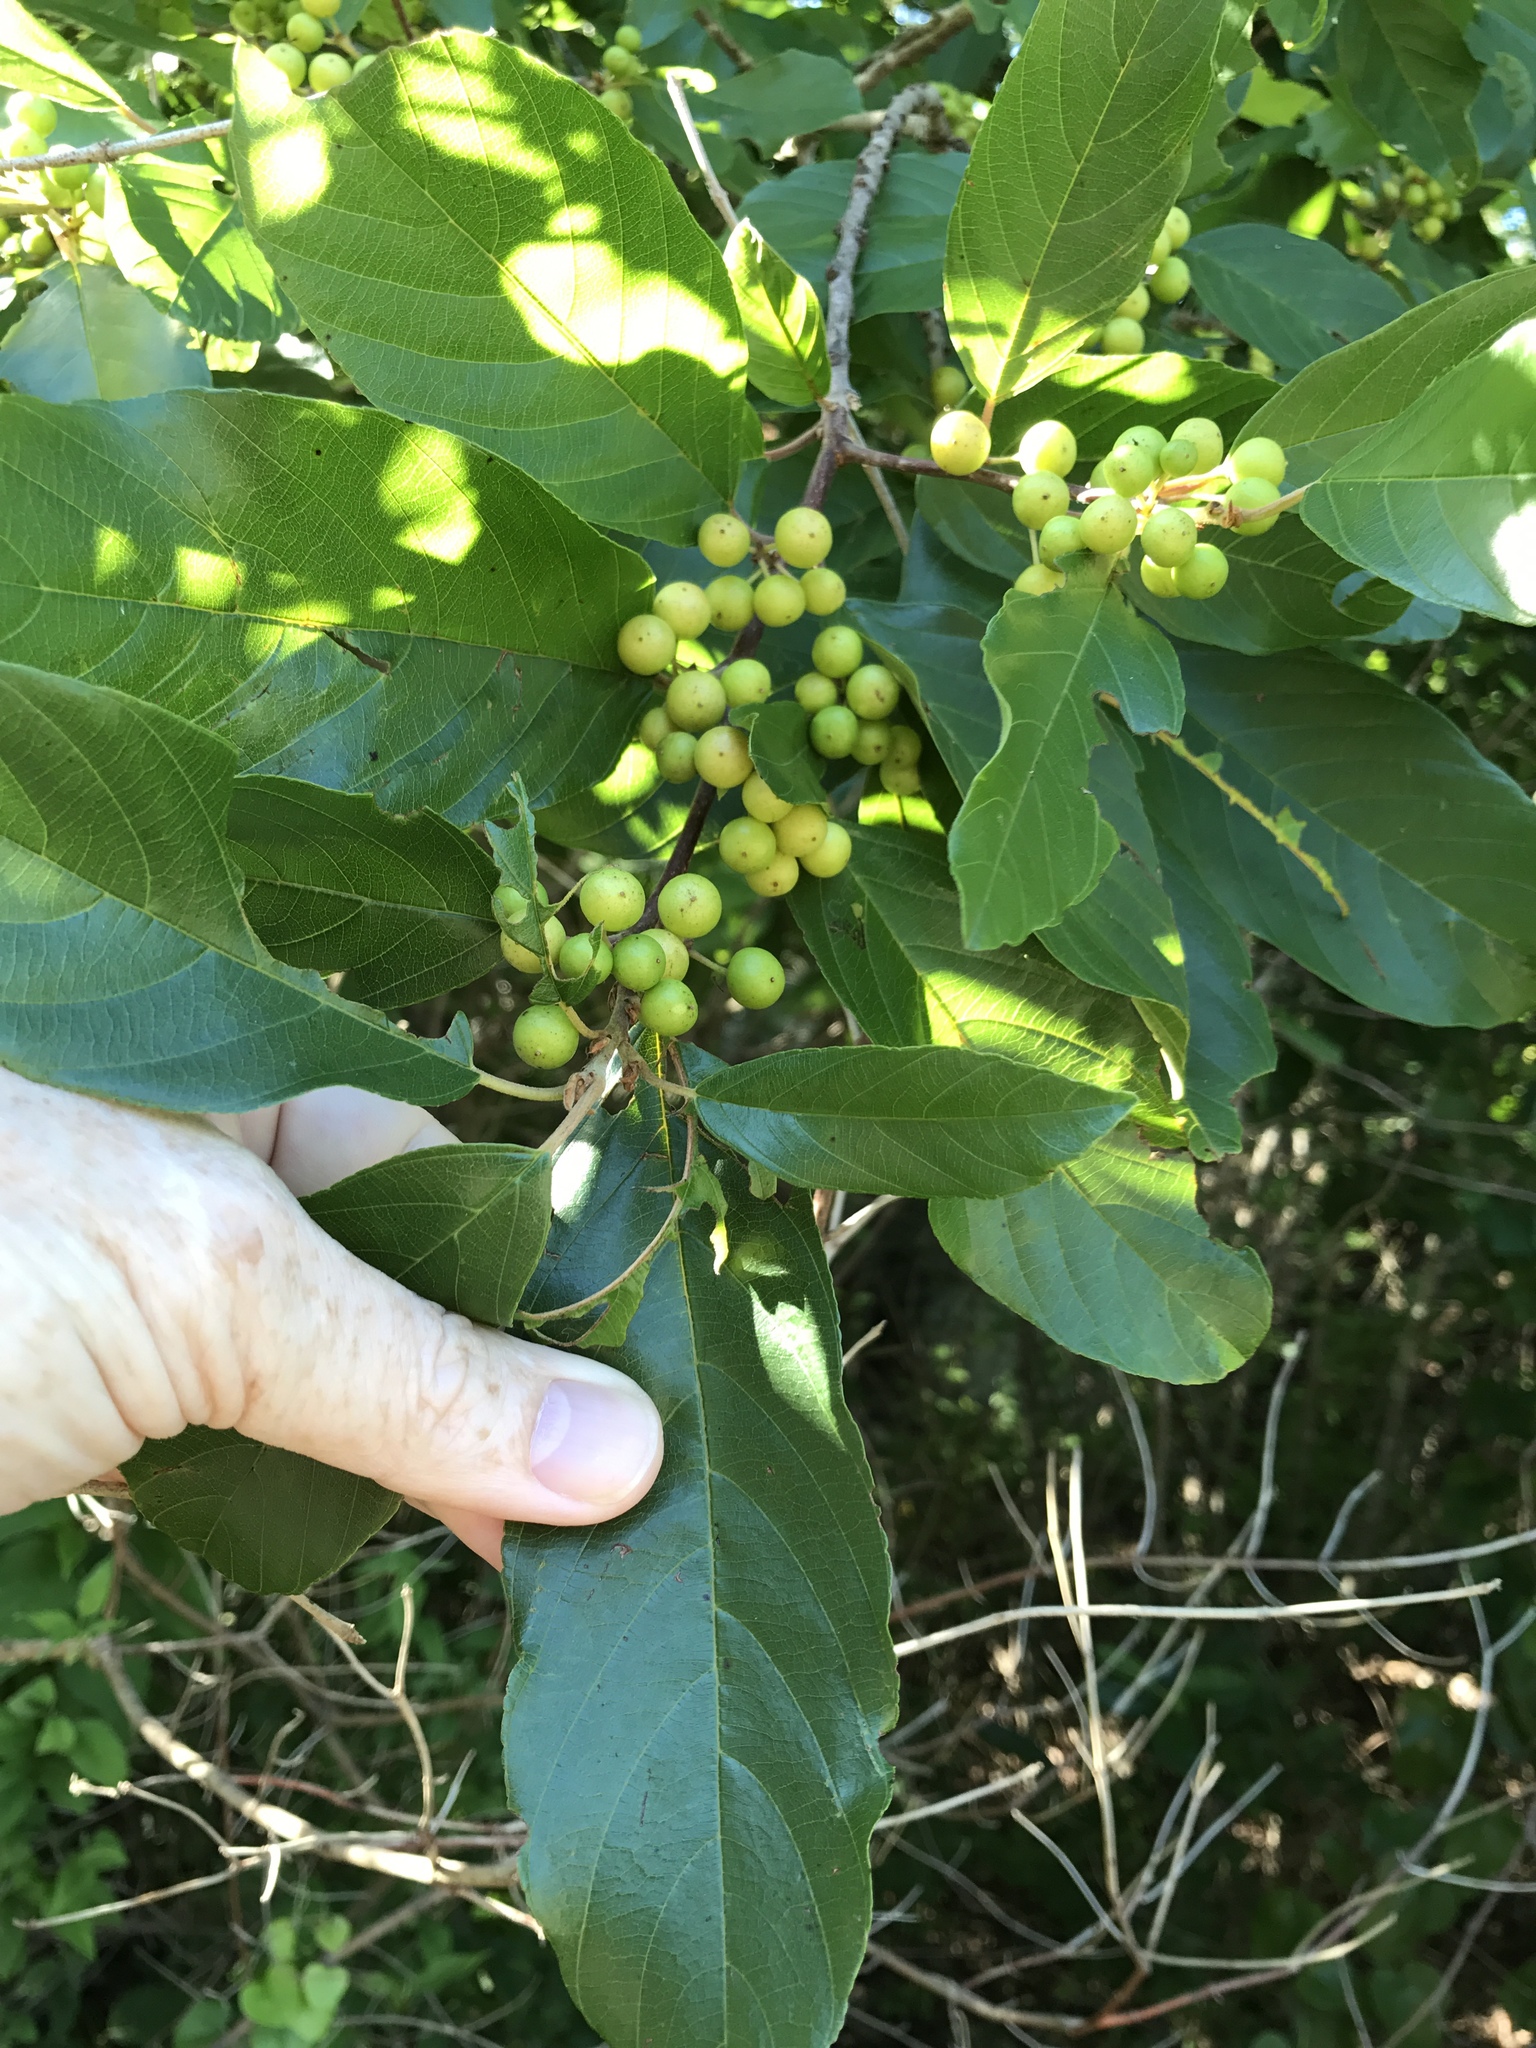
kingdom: Plantae
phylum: Tracheophyta
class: Magnoliopsida
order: Rosales
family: Rhamnaceae
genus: Frangula
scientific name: Frangula caroliniana
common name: Carolina buckthorn
